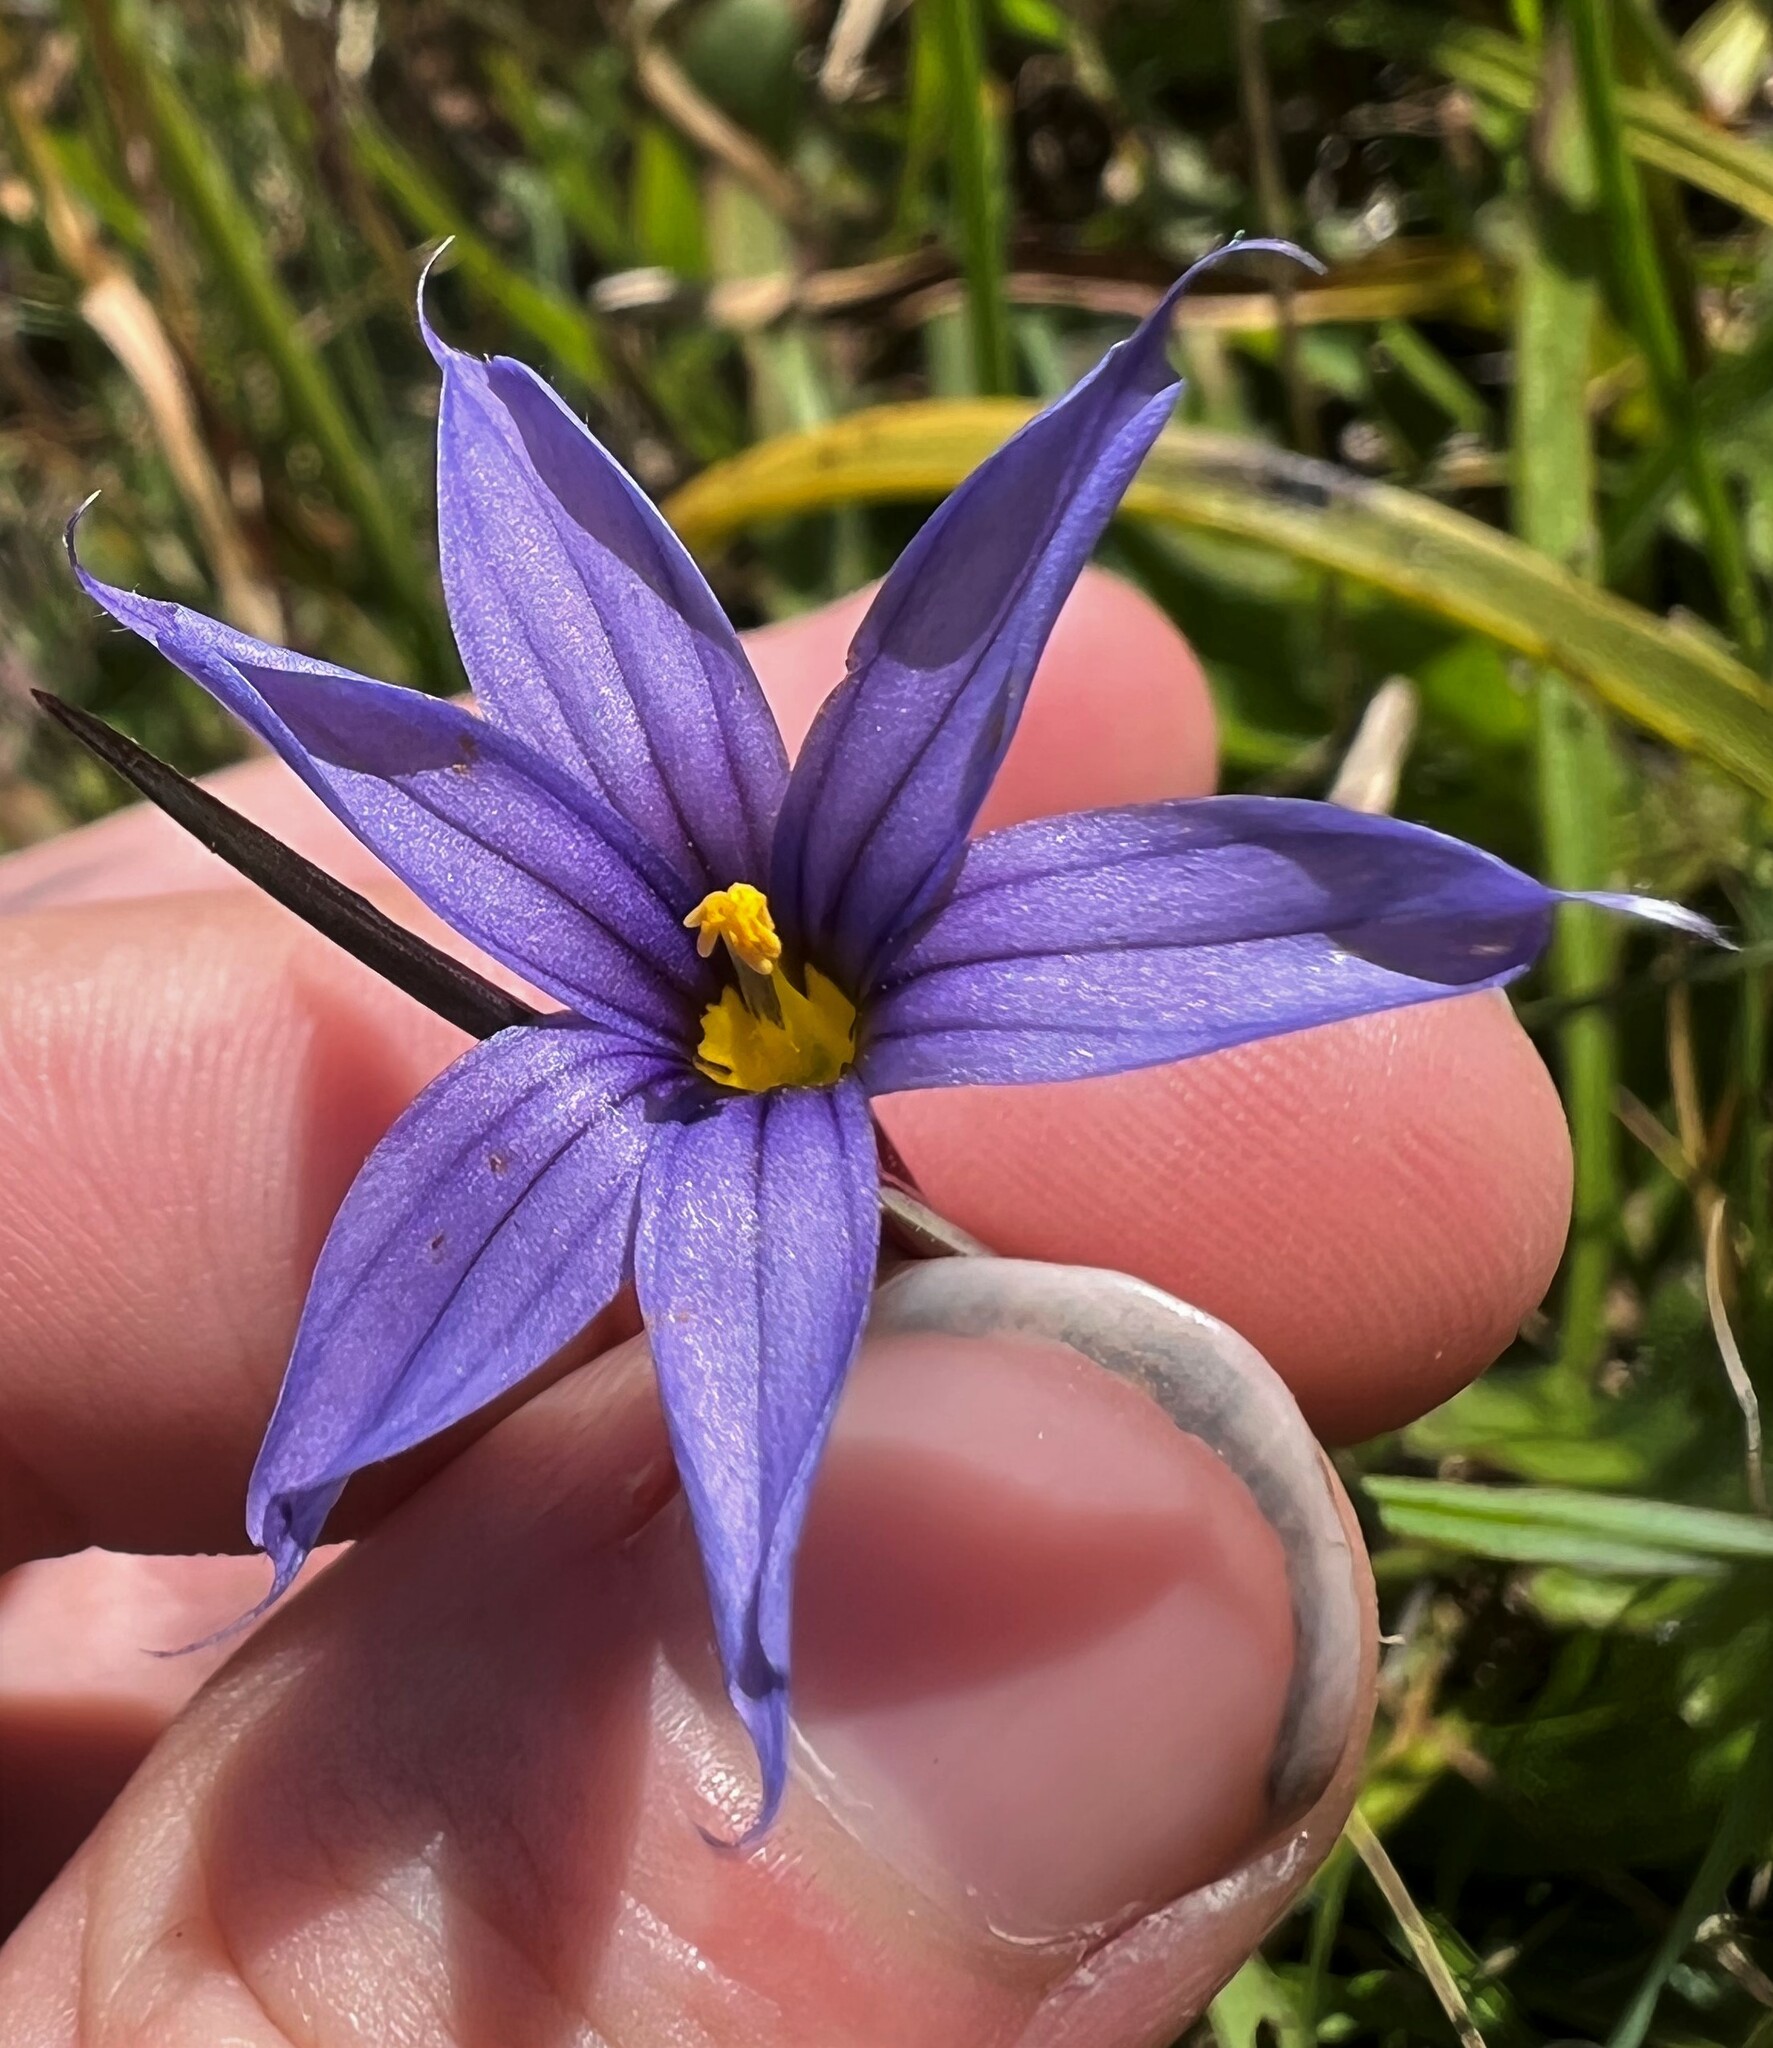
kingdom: Plantae
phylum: Tracheophyta
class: Liliopsida
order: Asparagales
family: Iridaceae
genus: Sisyrinchium
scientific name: Sisyrinchium idahoense
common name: Idaho blue-eyed-grass
